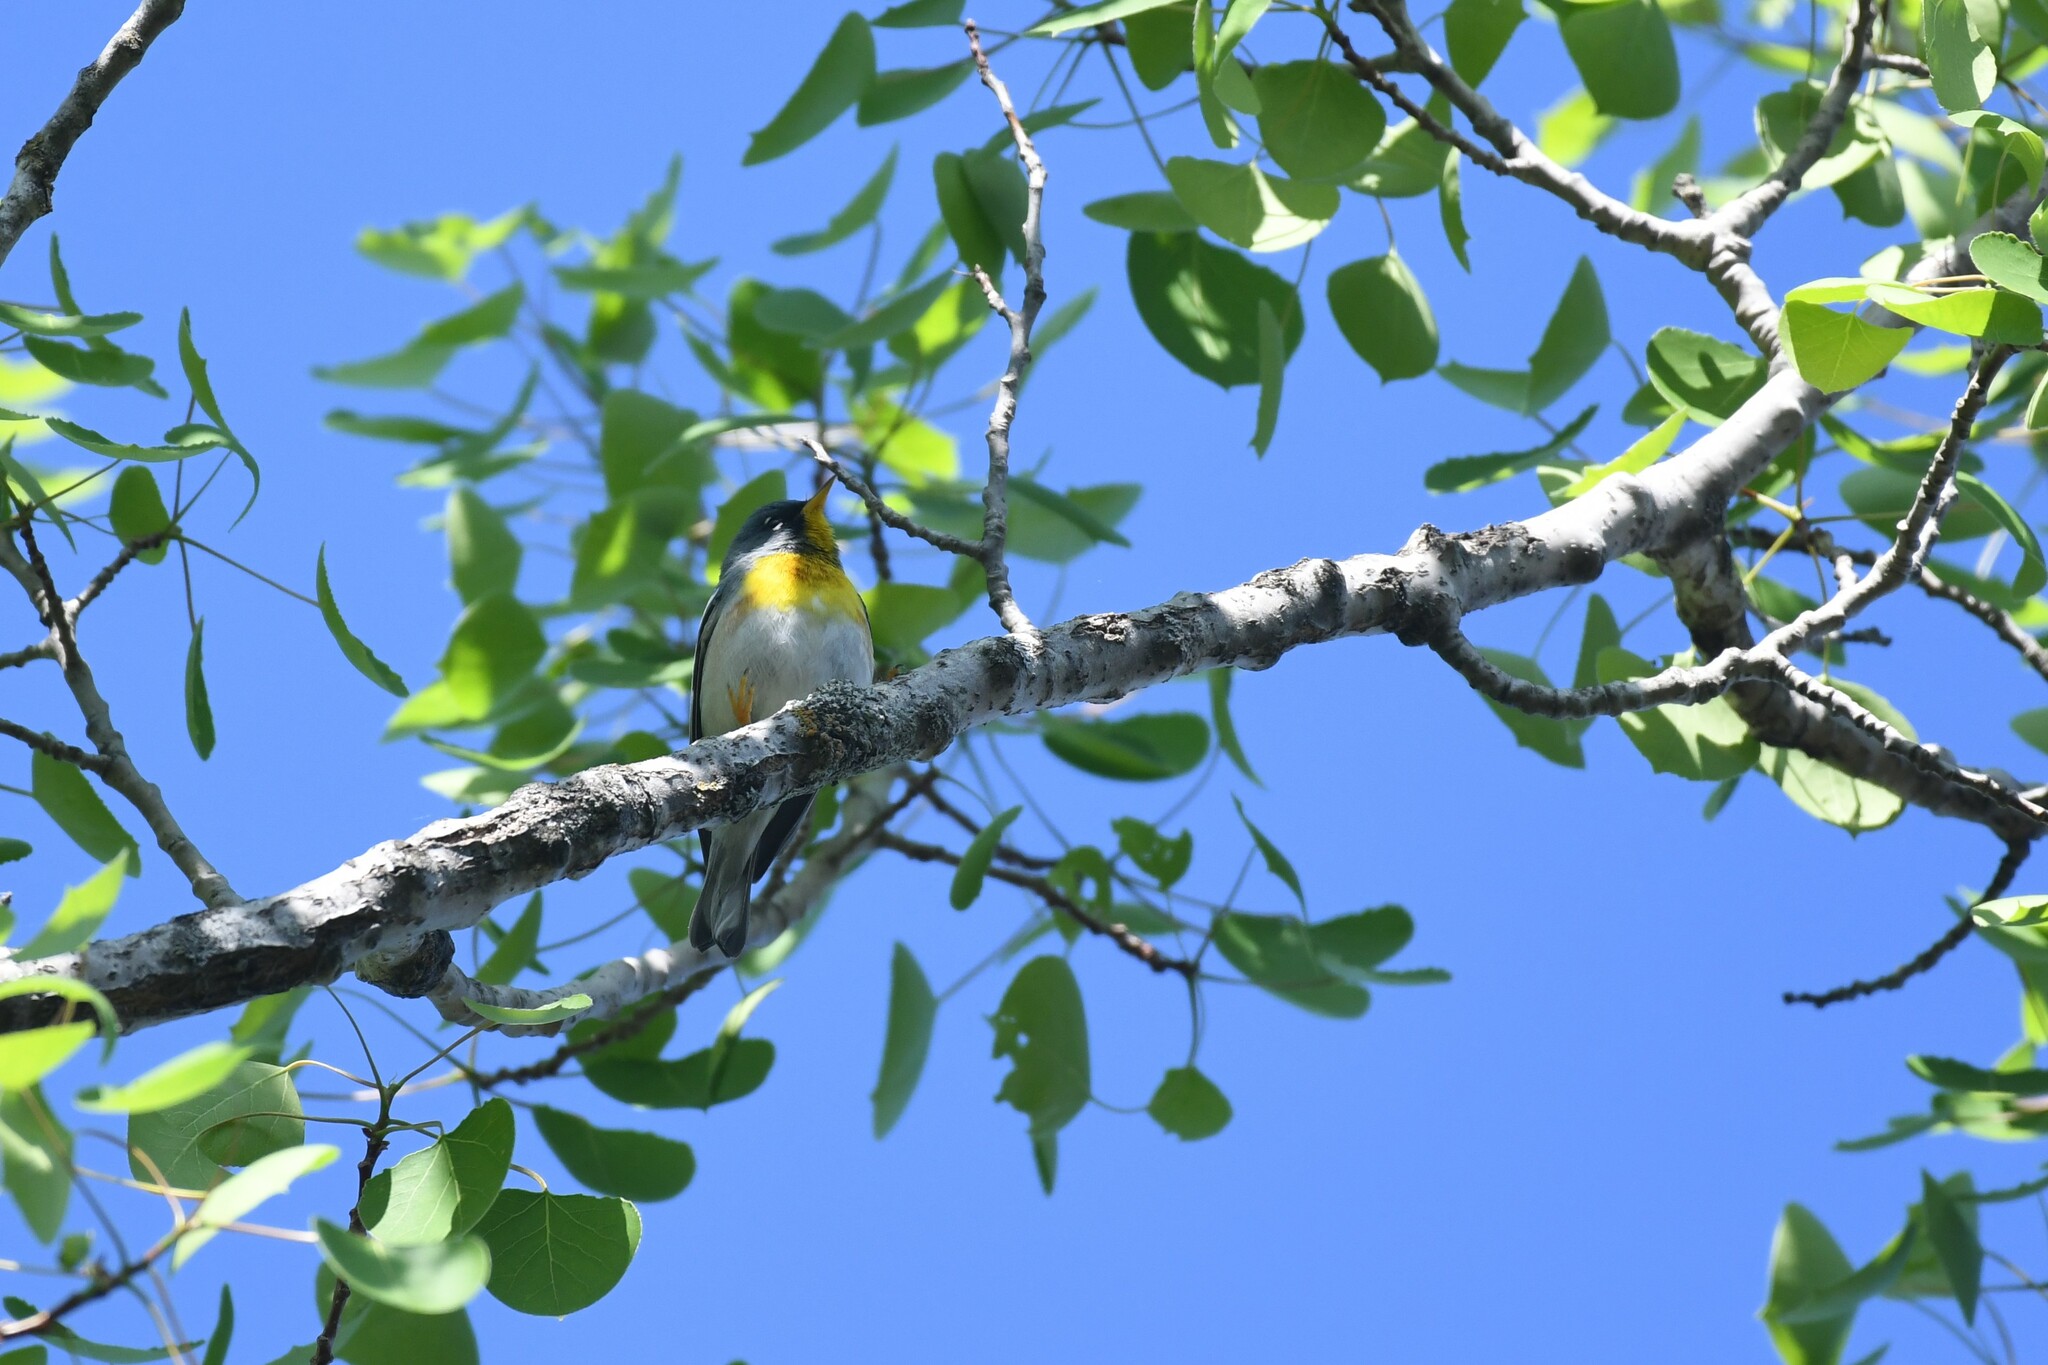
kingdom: Animalia
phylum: Chordata
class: Aves
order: Passeriformes
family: Parulidae
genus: Setophaga
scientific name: Setophaga americana
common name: Northern parula
